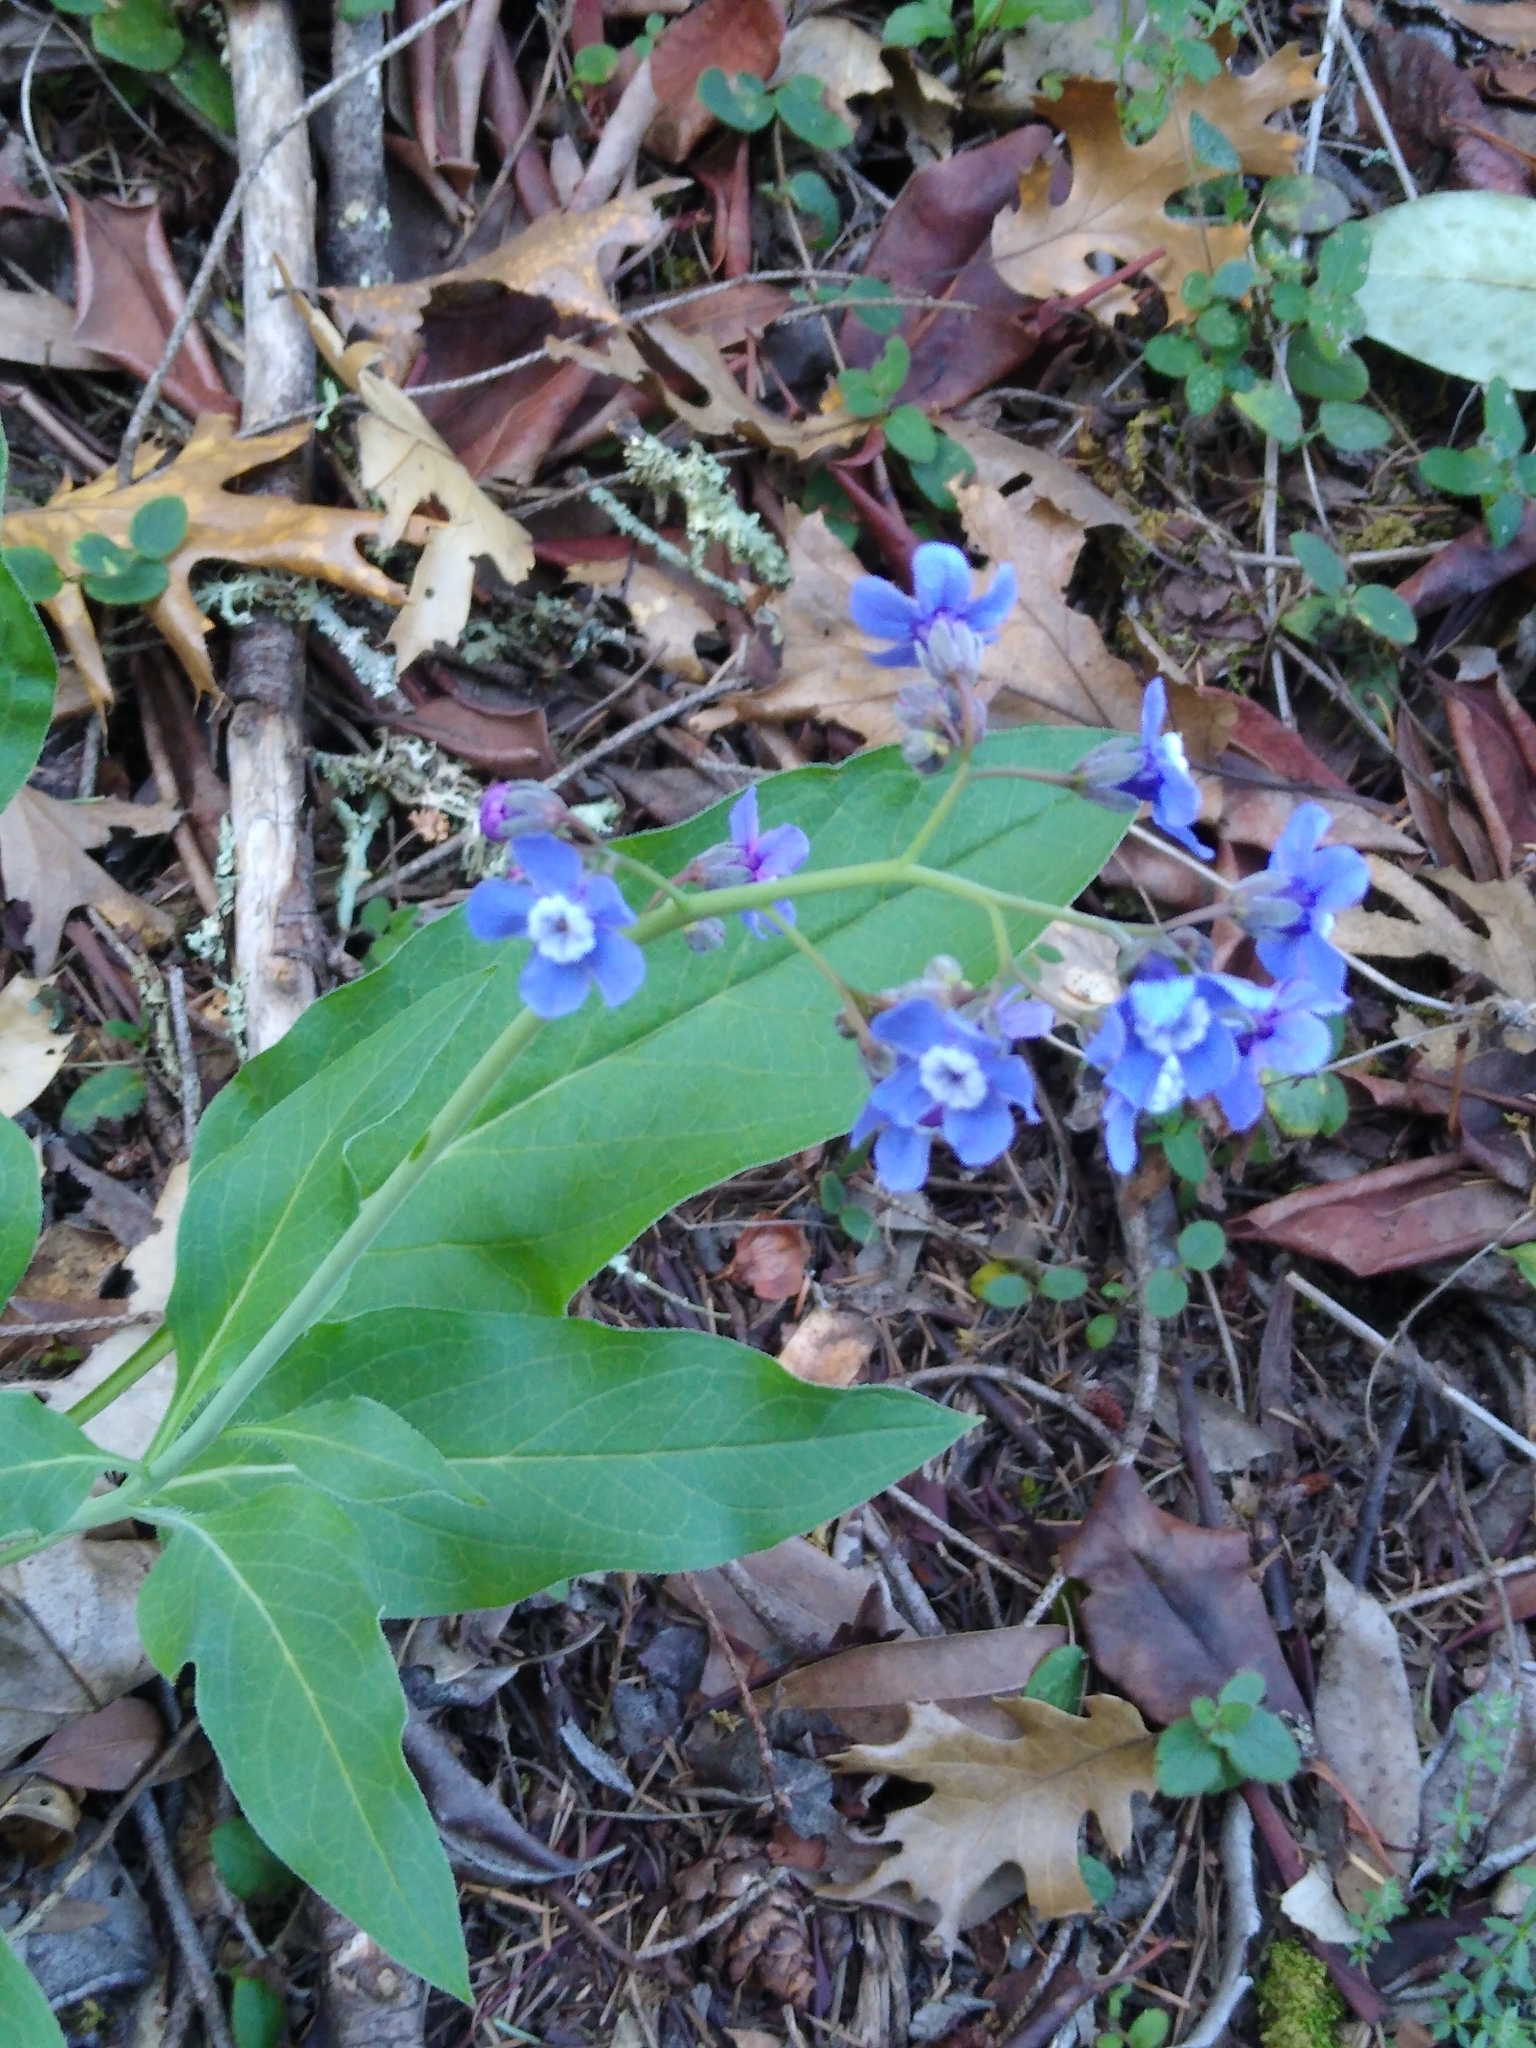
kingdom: Plantae
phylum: Tracheophyta
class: Magnoliopsida
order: Boraginales
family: Boraginaceae
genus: Adelinia
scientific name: Adelinia grande
